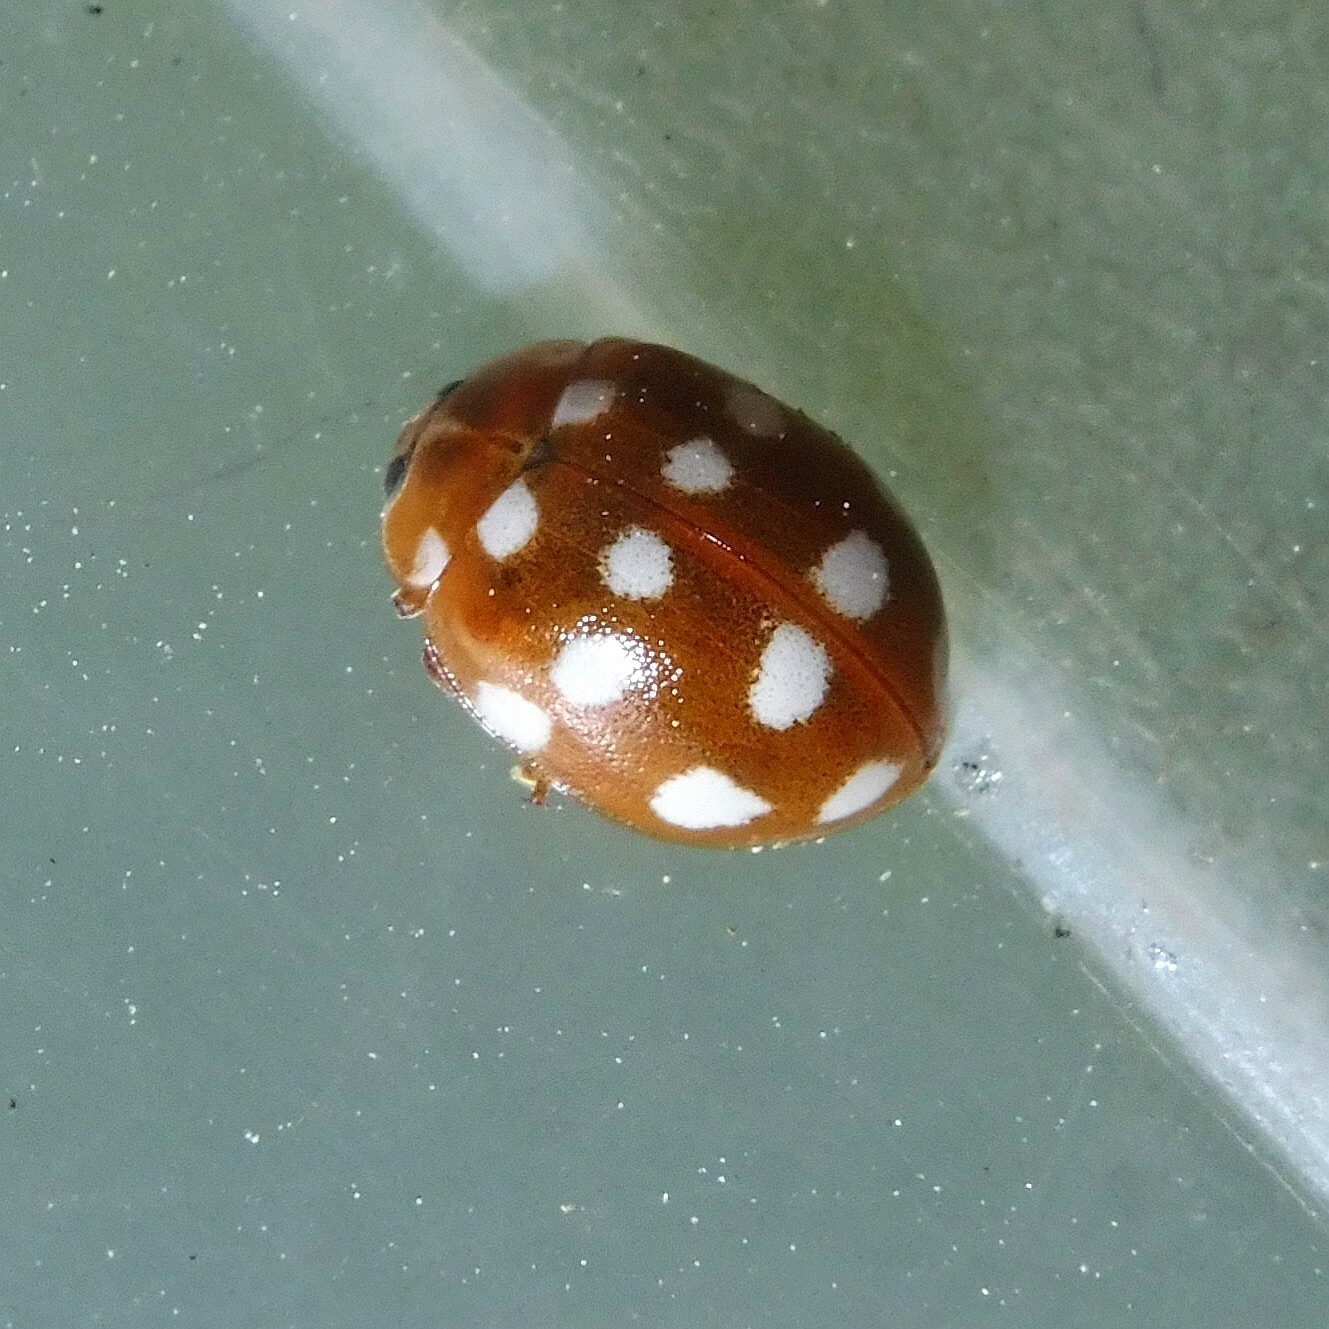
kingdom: Animalia
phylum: Arthropoda
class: Insecta
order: Coleoptera
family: Coccinellidae
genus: Calvia
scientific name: Calvia quatuordecimguttata
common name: Cream-spot ladybird
